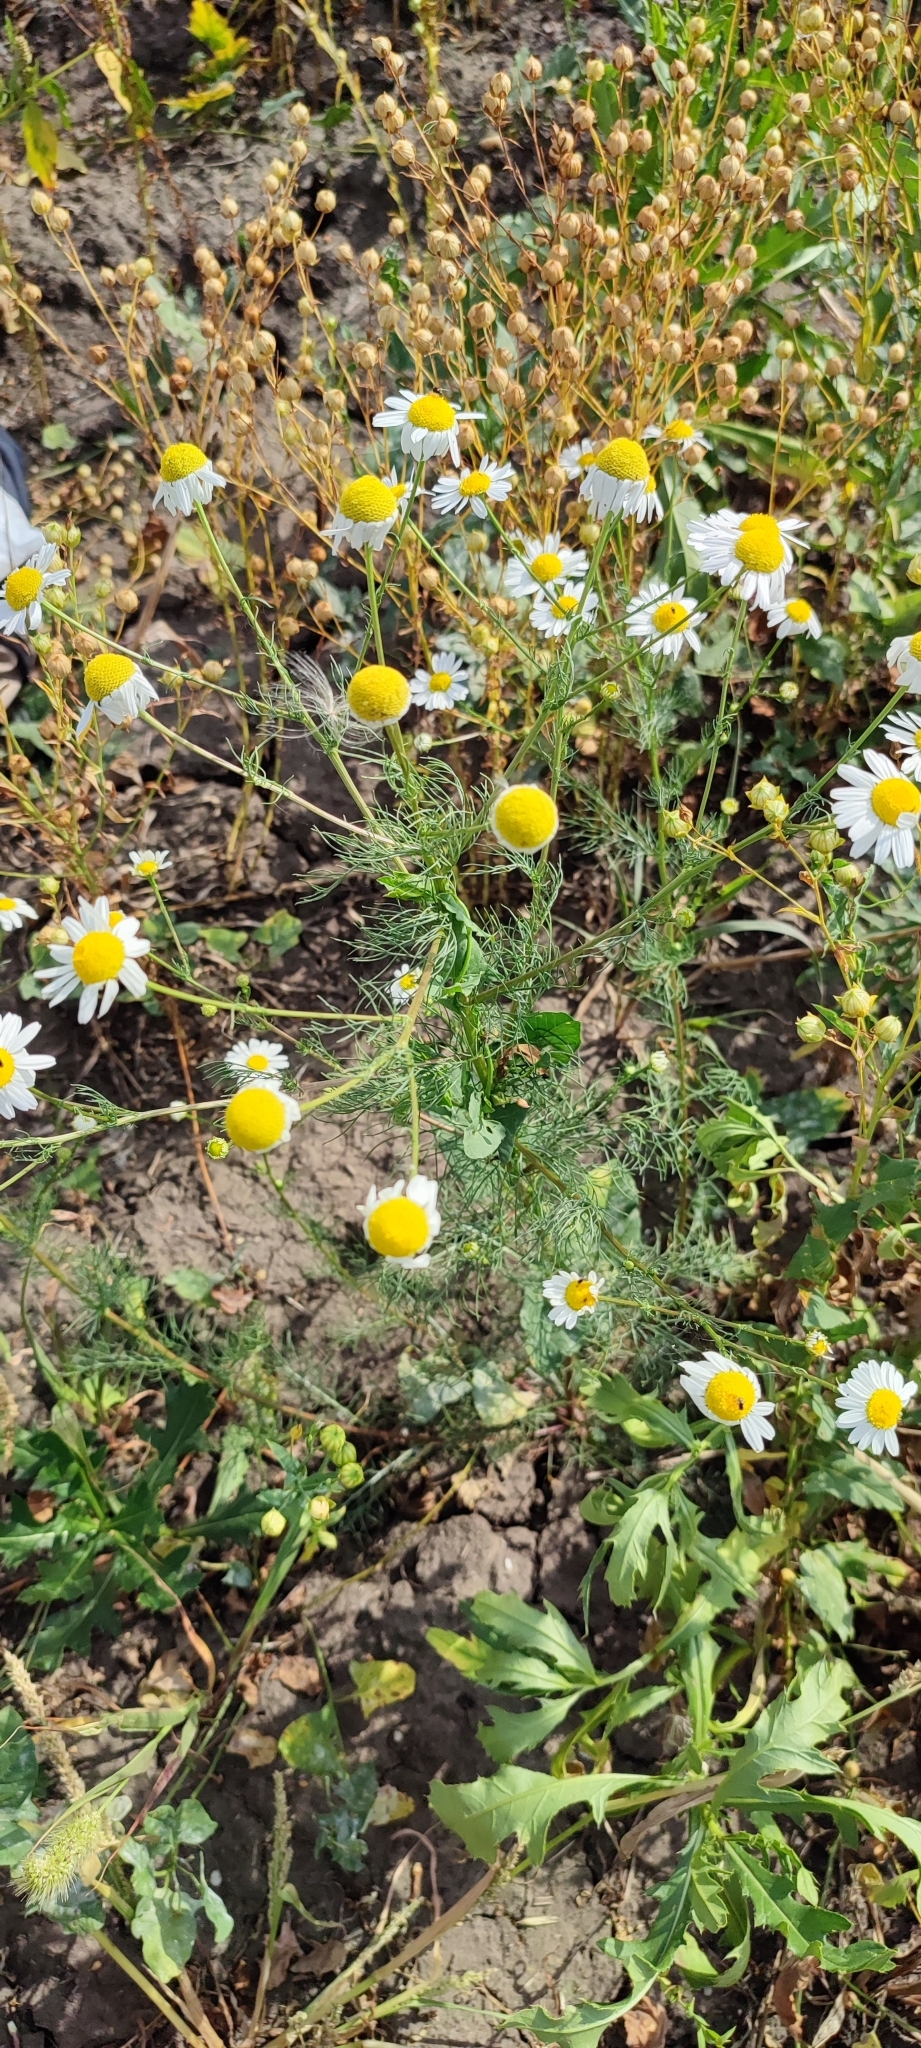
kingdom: Plantae
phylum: Tracheophyta
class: Magnoliopsida
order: Asterales
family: Asteraceae
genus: Tripleurospermum
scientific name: Tripleurospermum inodorum
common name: Scentless mayweed
